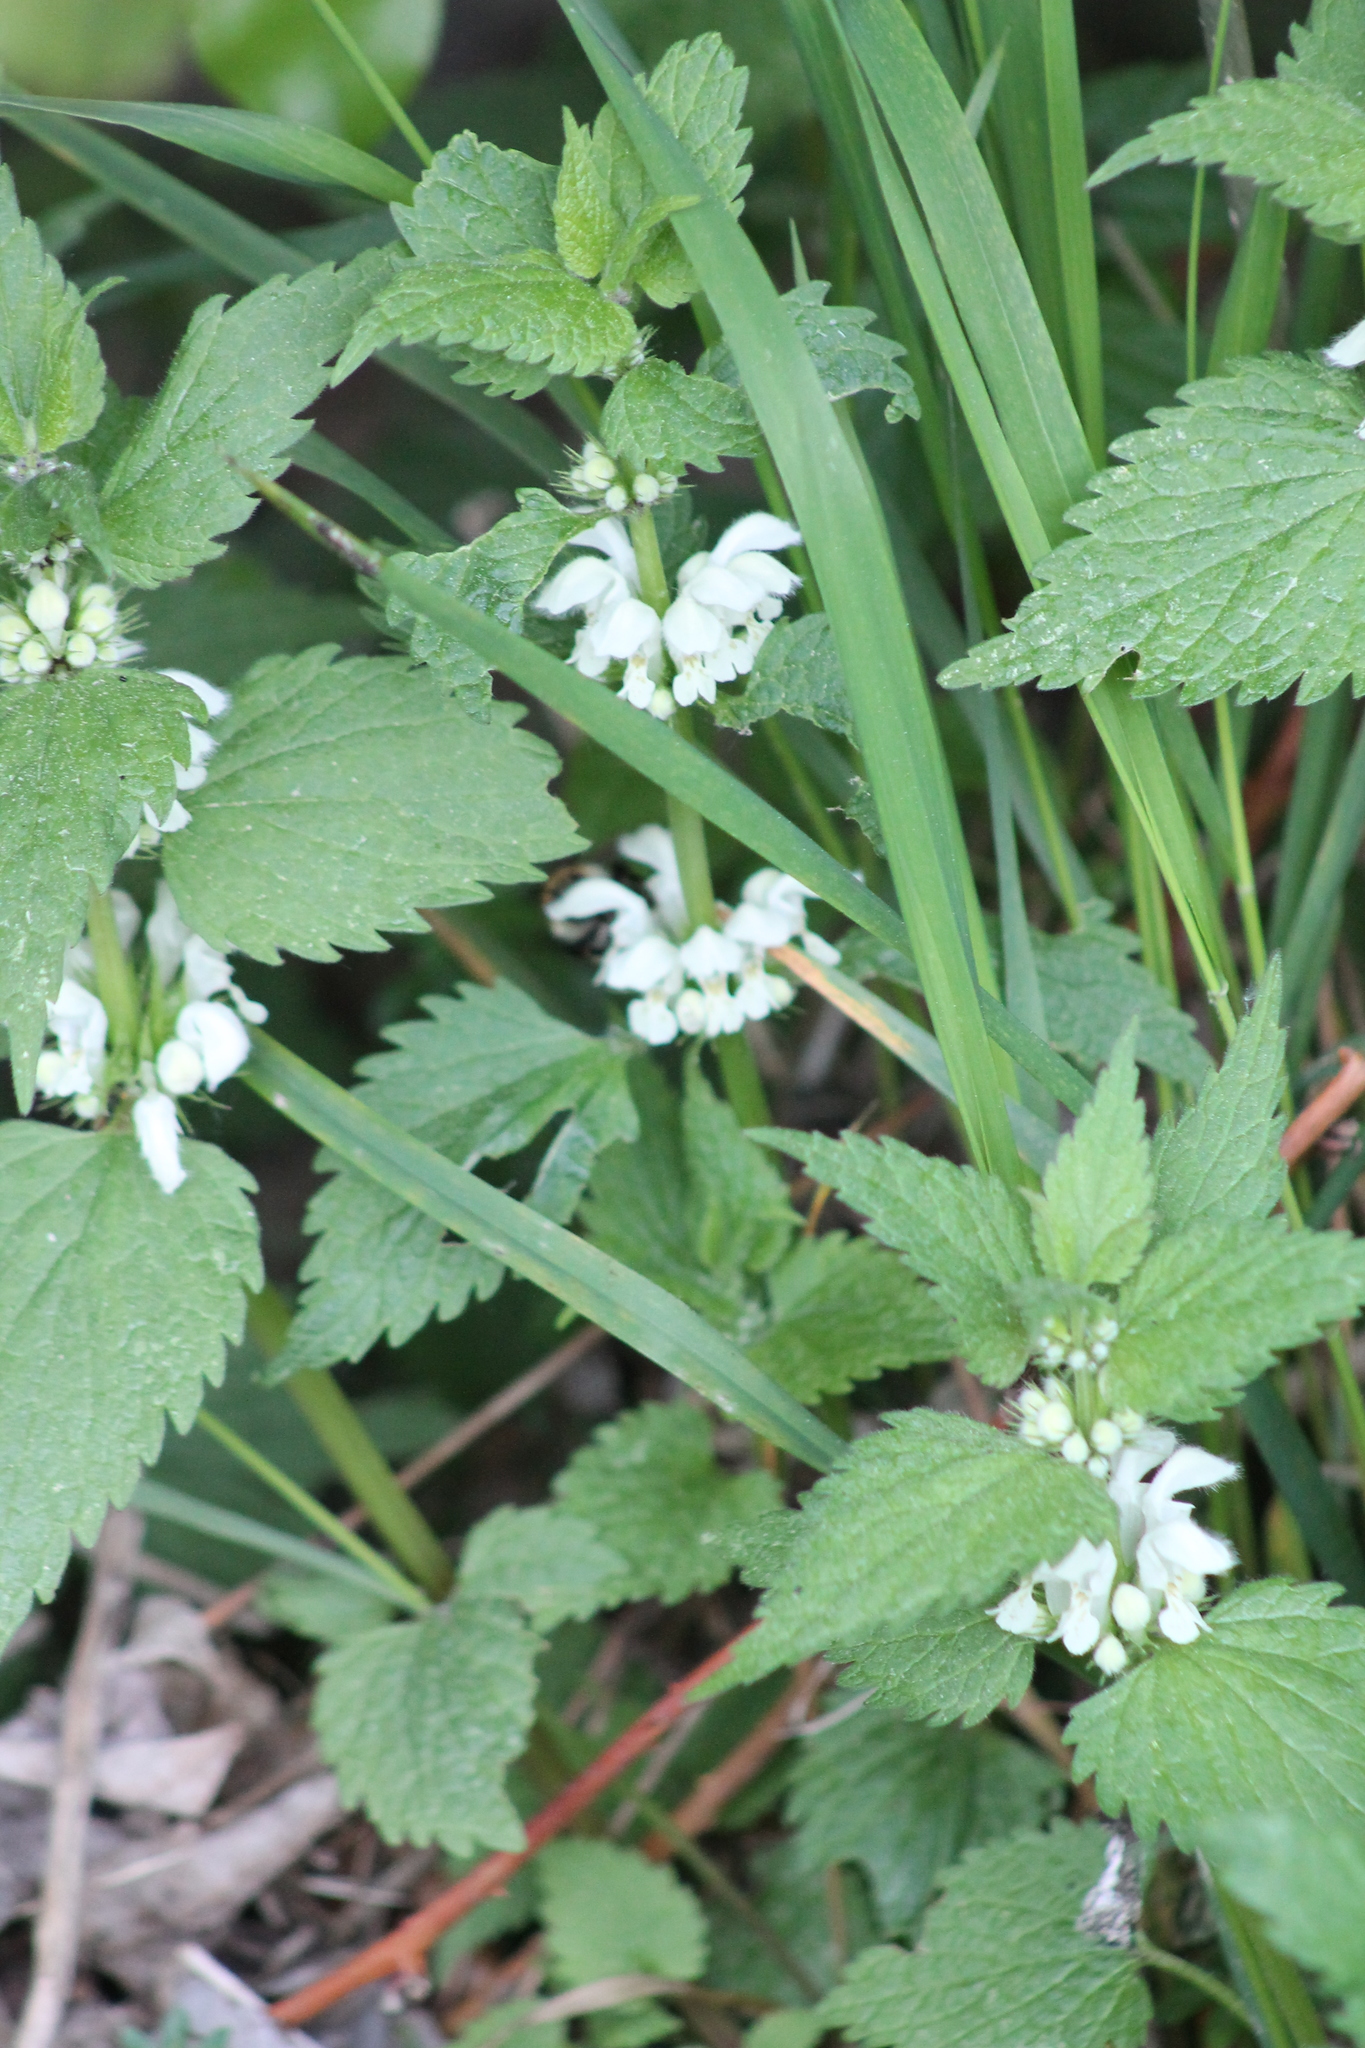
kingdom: Plantae
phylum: Tracheophyta
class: Magnoliopsida
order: Lamiales
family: Lamiaceae
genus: Lamium
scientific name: Lamium album
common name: White dead-nettle
